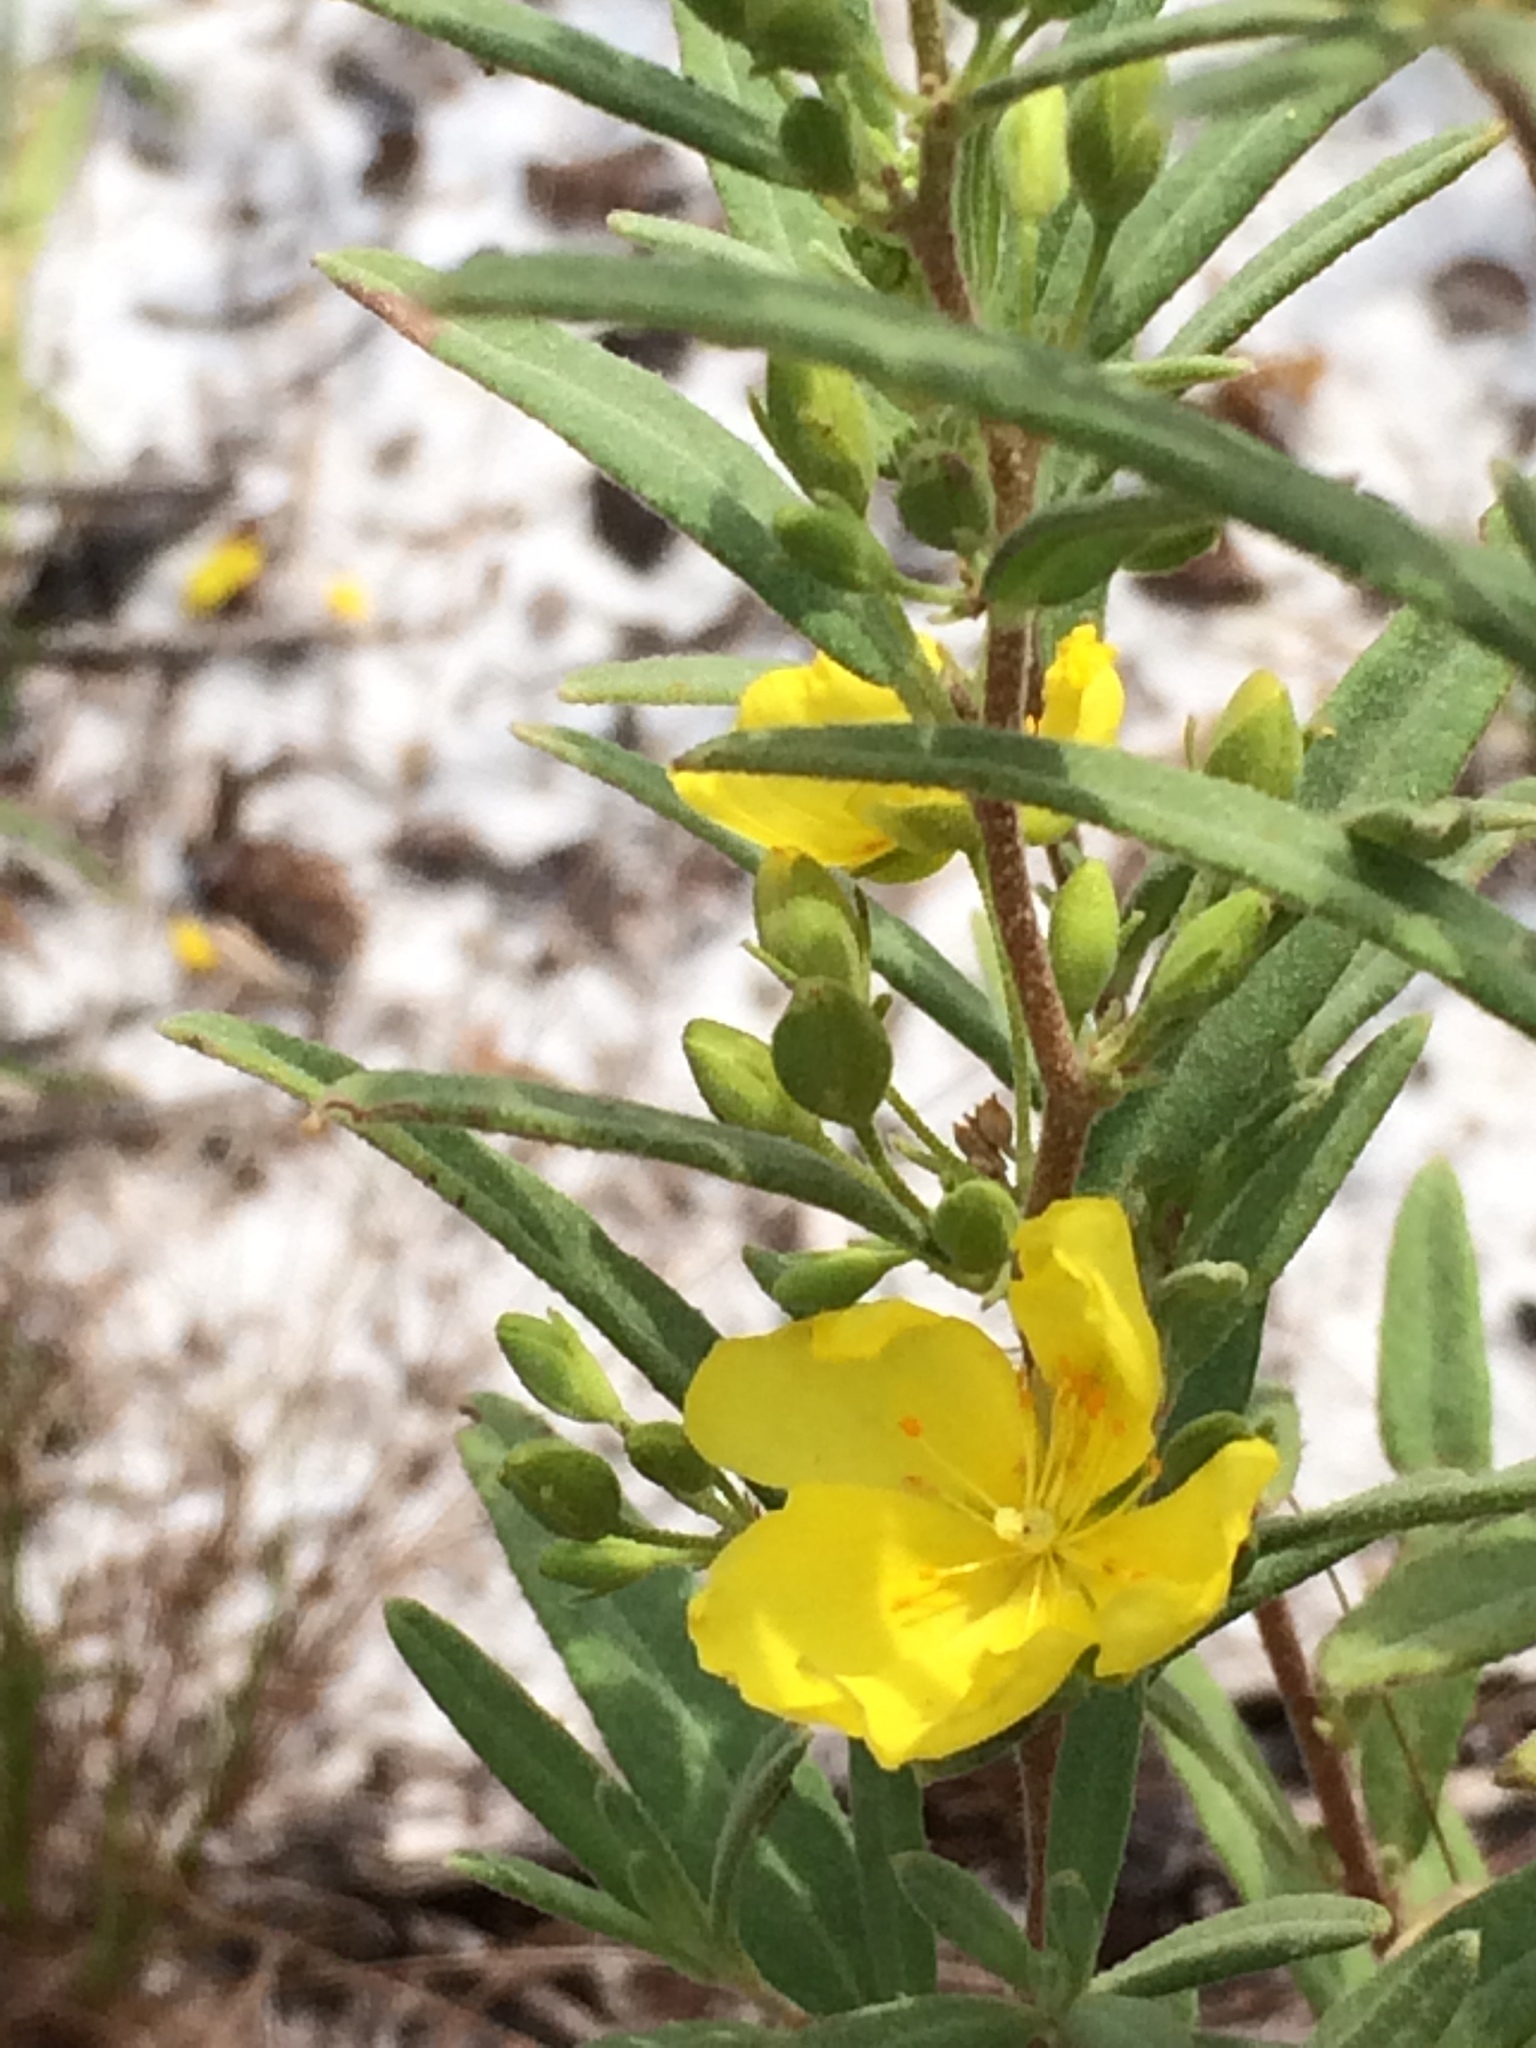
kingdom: Plantae
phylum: Tracheophyta
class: Magnoliopsida
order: Malvales
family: Cistaceae
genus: Crocanthemum
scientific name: Crocanthemum nashii
